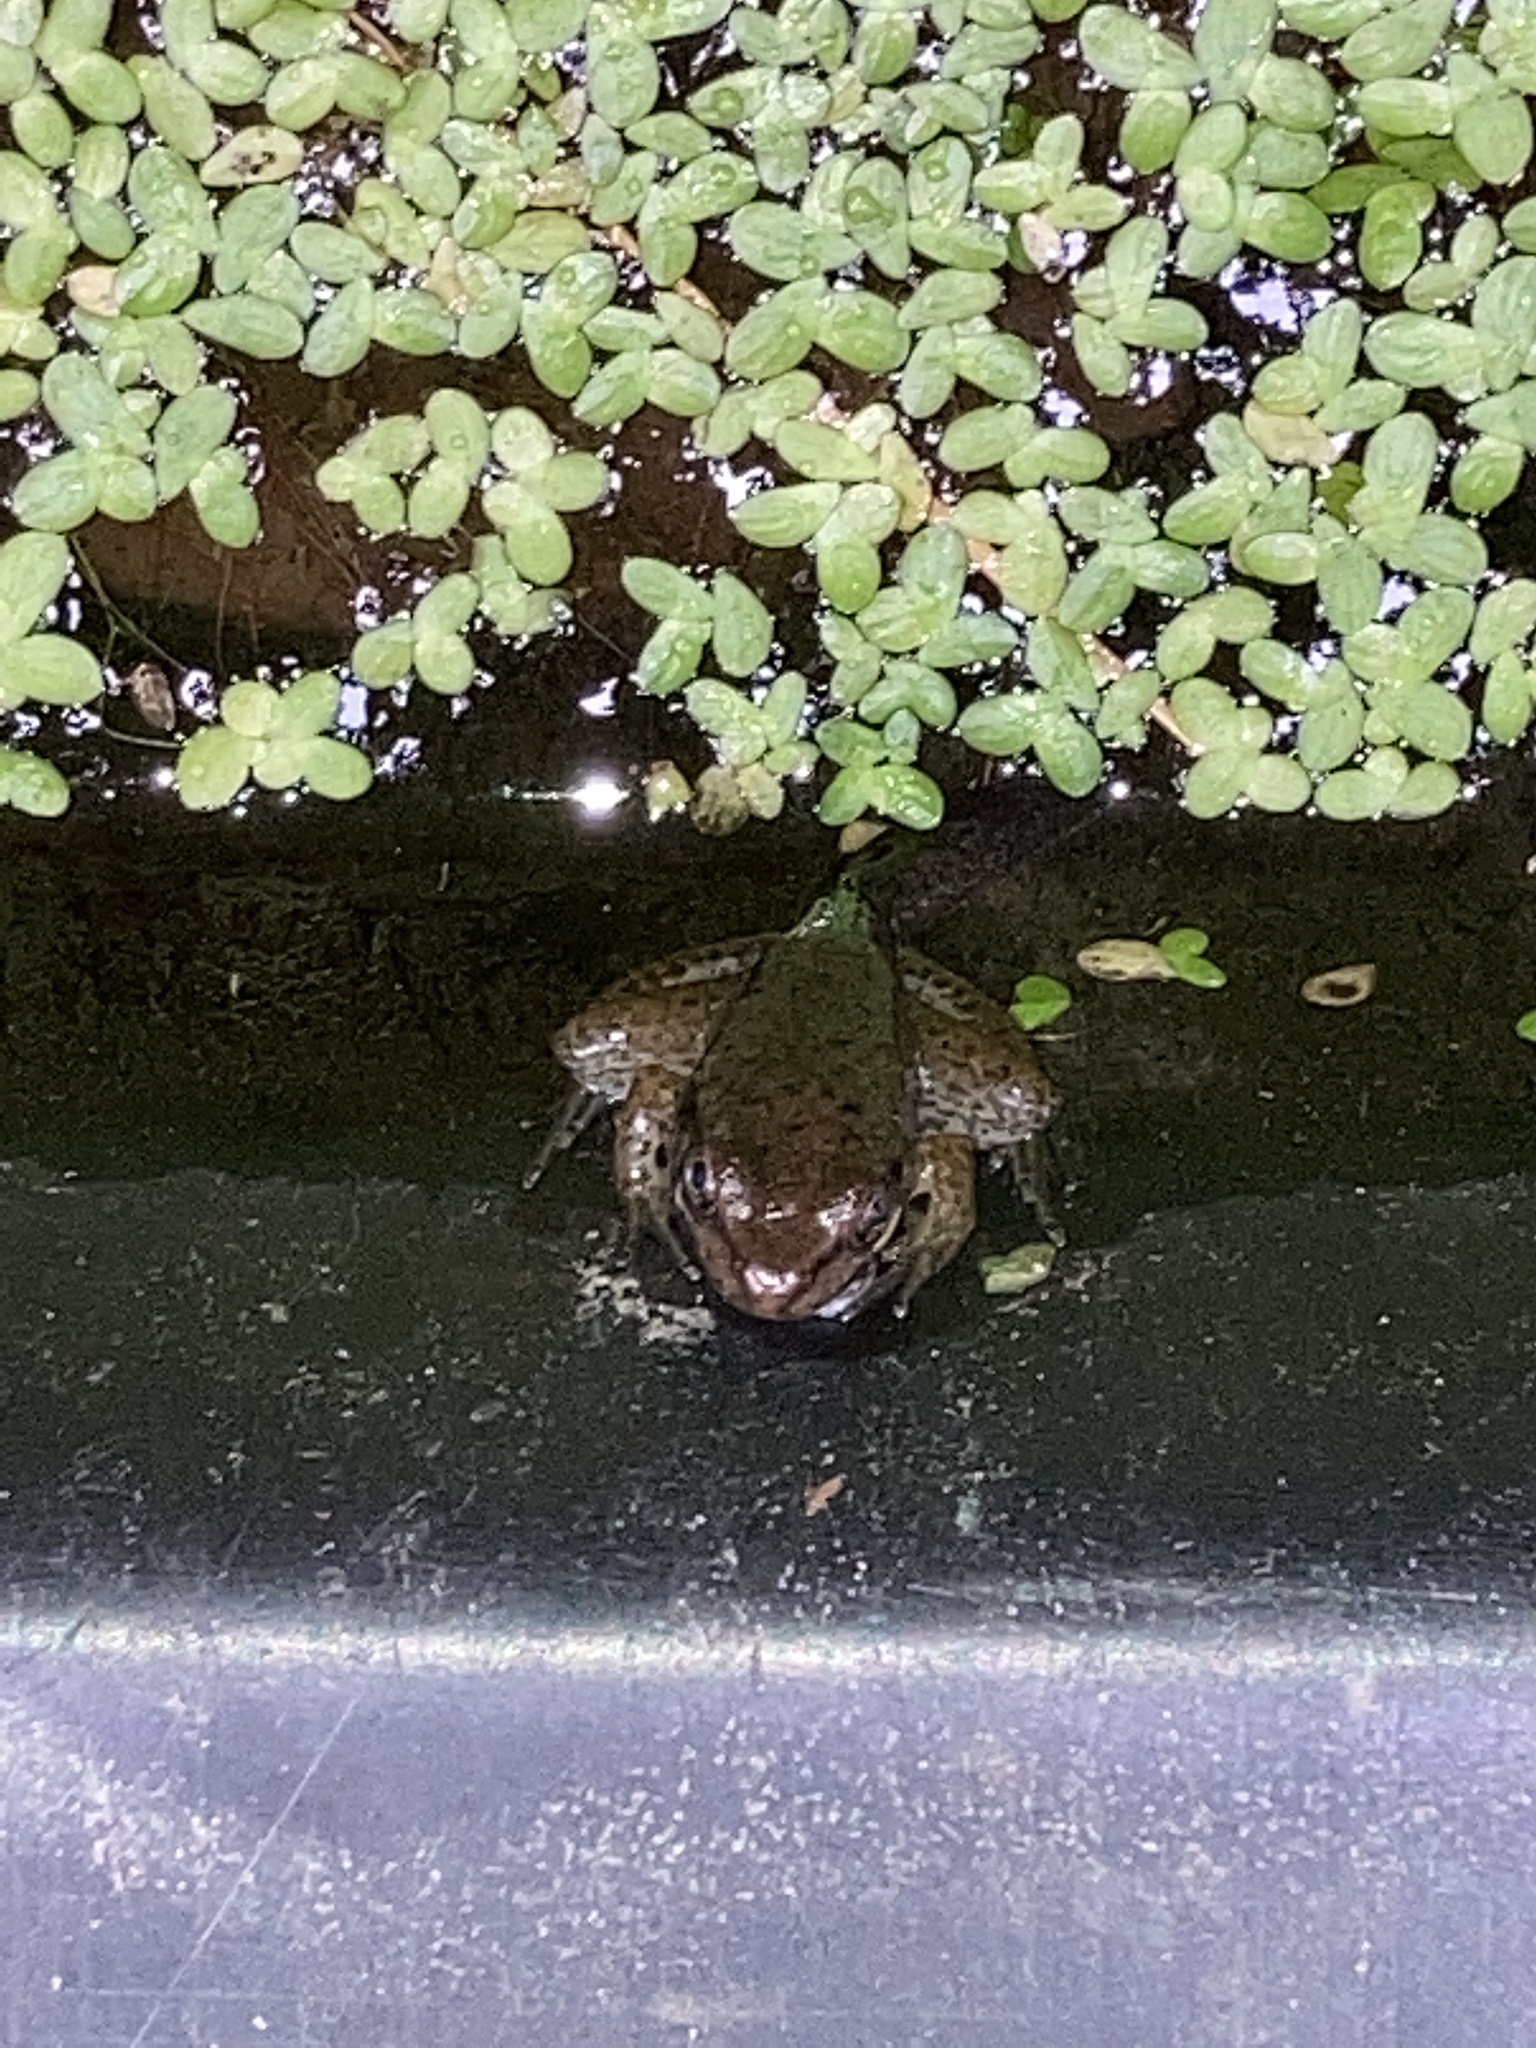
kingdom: Animalia
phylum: Chordata
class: Amphibia
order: Anura
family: Ranidae
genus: Lithobates
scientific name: Lithobates clamitans
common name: Green frog
